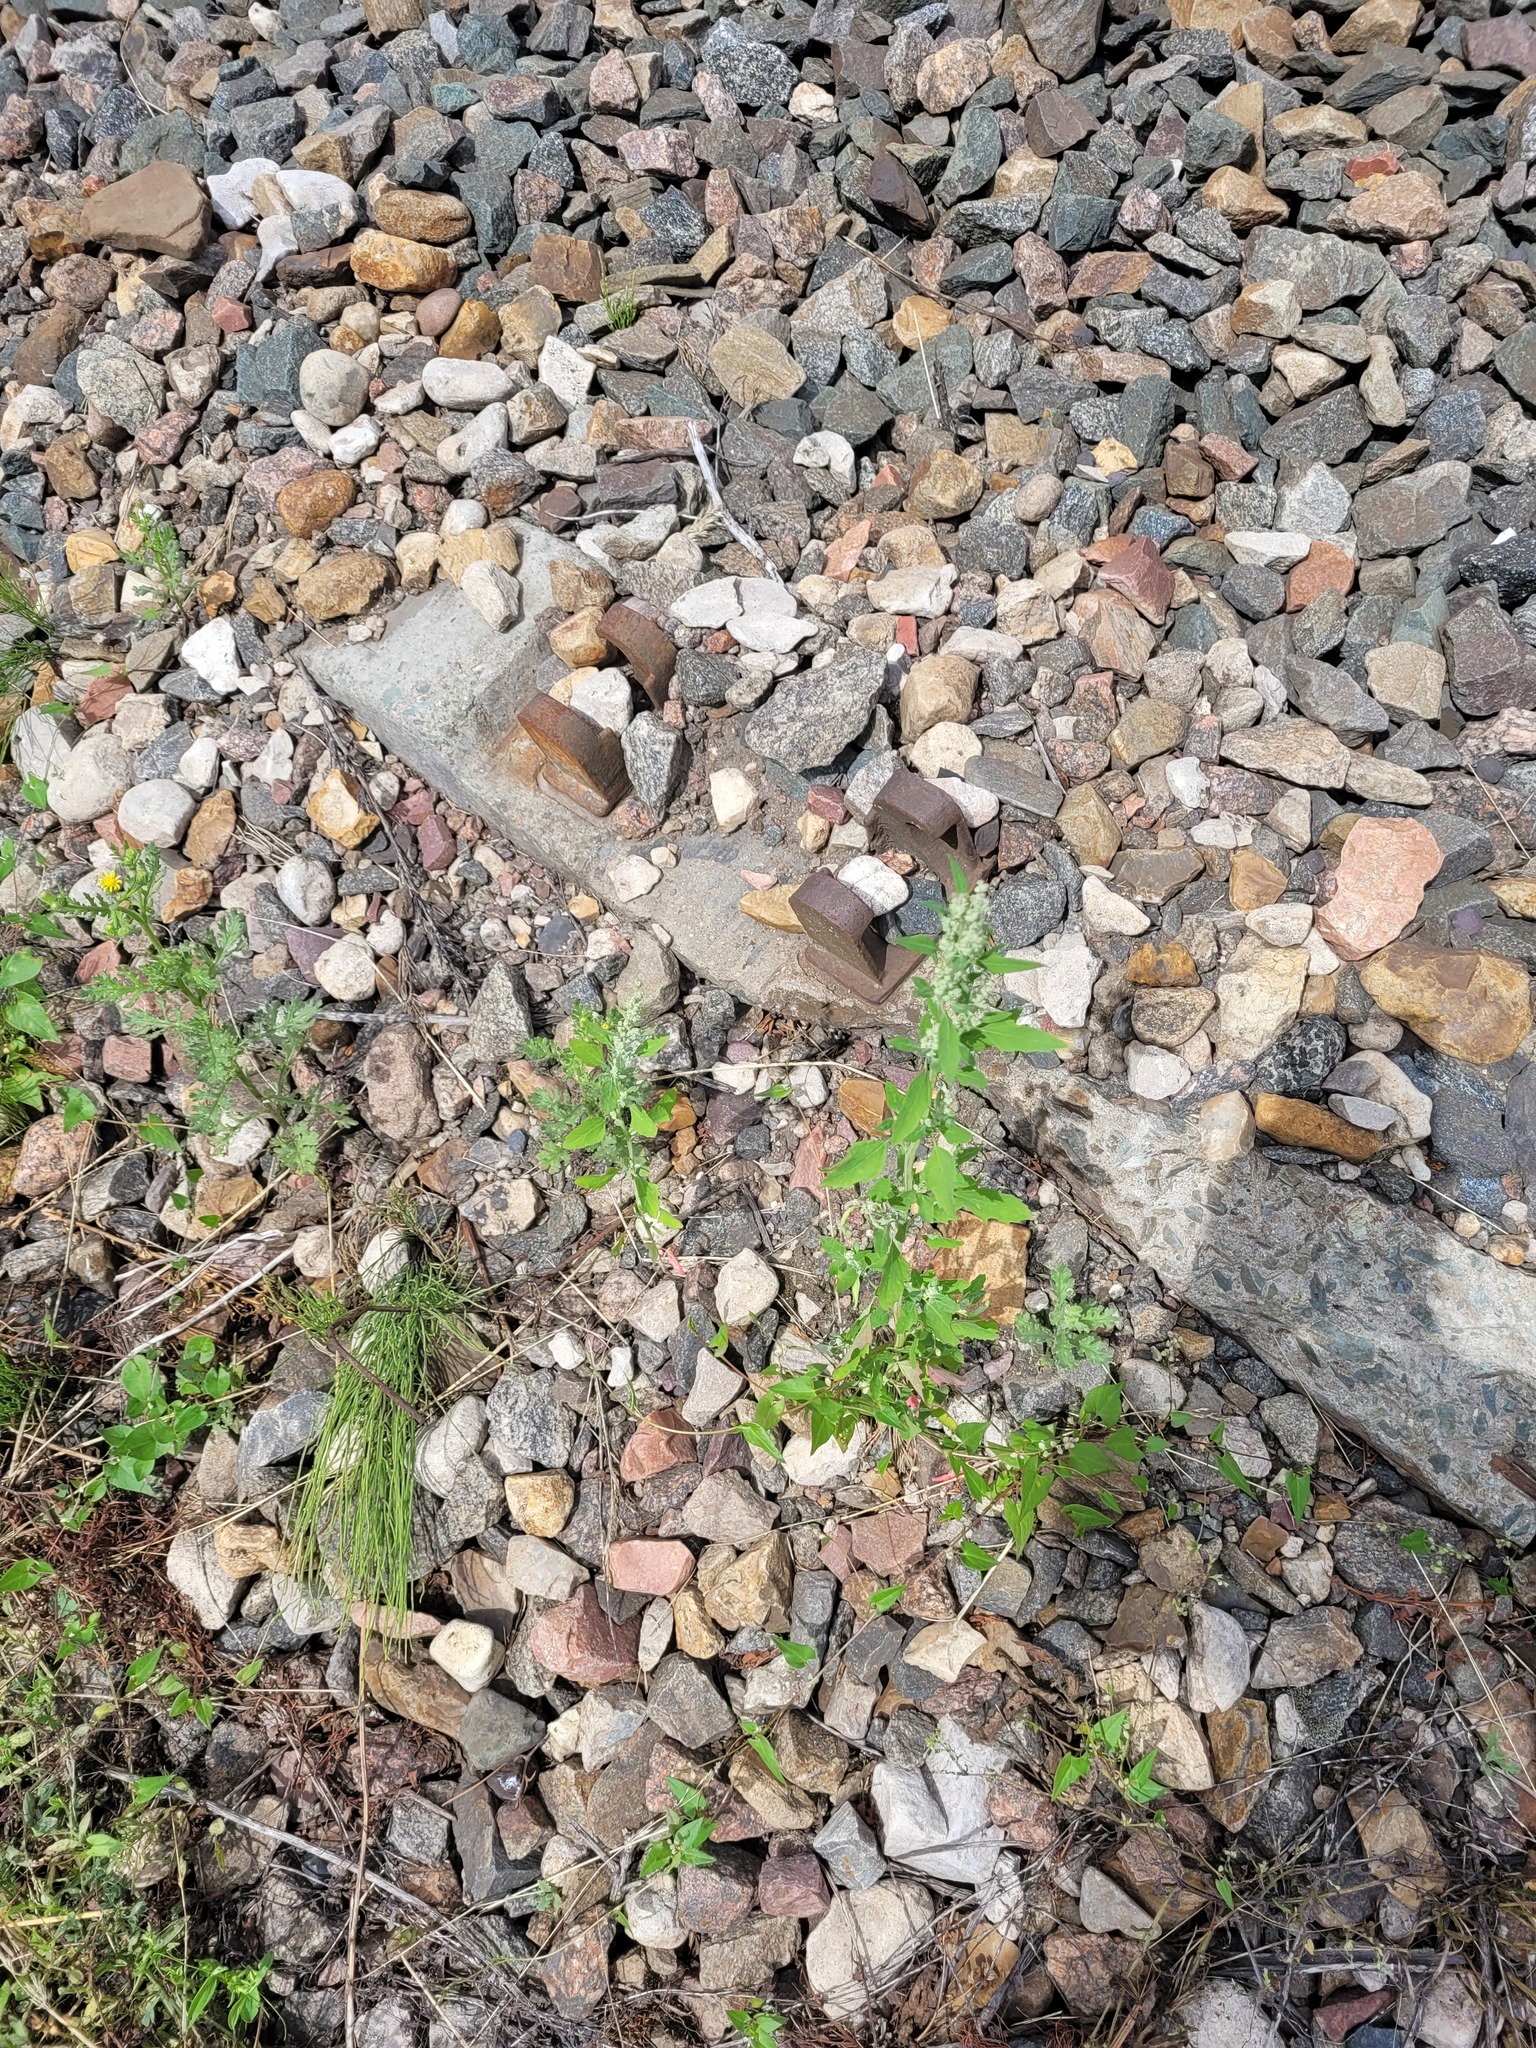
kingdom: Plantae
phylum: Tracheophyta
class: Magnoliopsida
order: Caryophyllales
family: Amaranthaceae
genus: Chenopodium
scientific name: Chenopodium album
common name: Fat-hen
